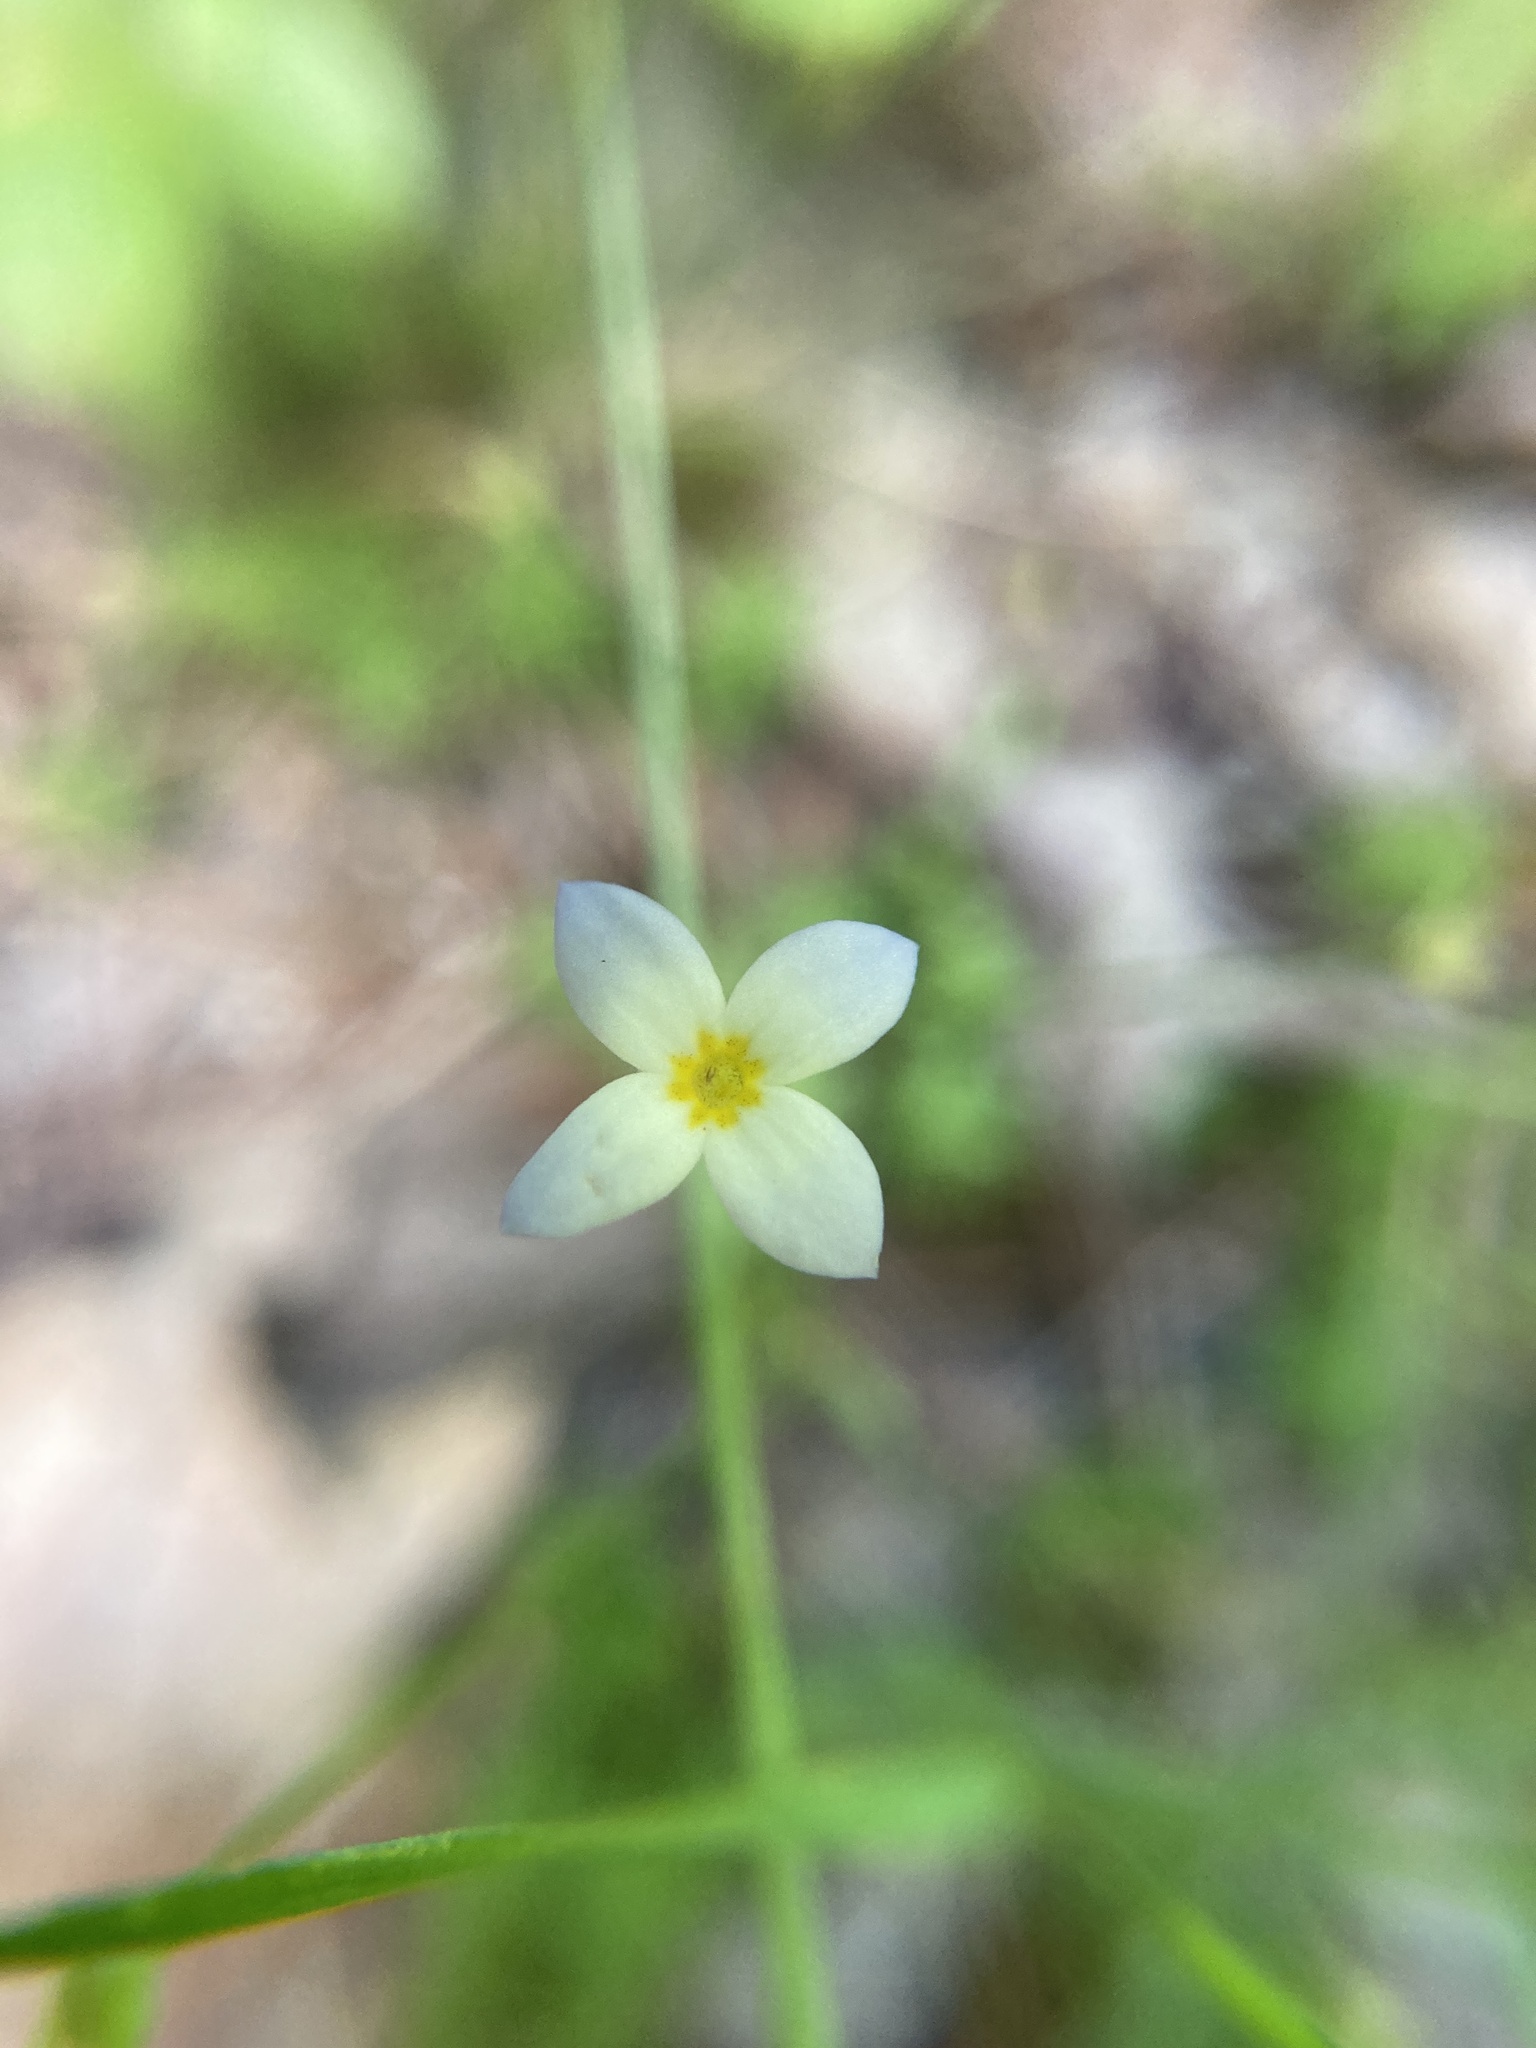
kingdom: Plantae
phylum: Tracheophyta
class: Magnoliopsida
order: Gentianales
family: Rubiaceae
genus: Houstonia
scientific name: Houstonia caerulea
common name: Bluets
